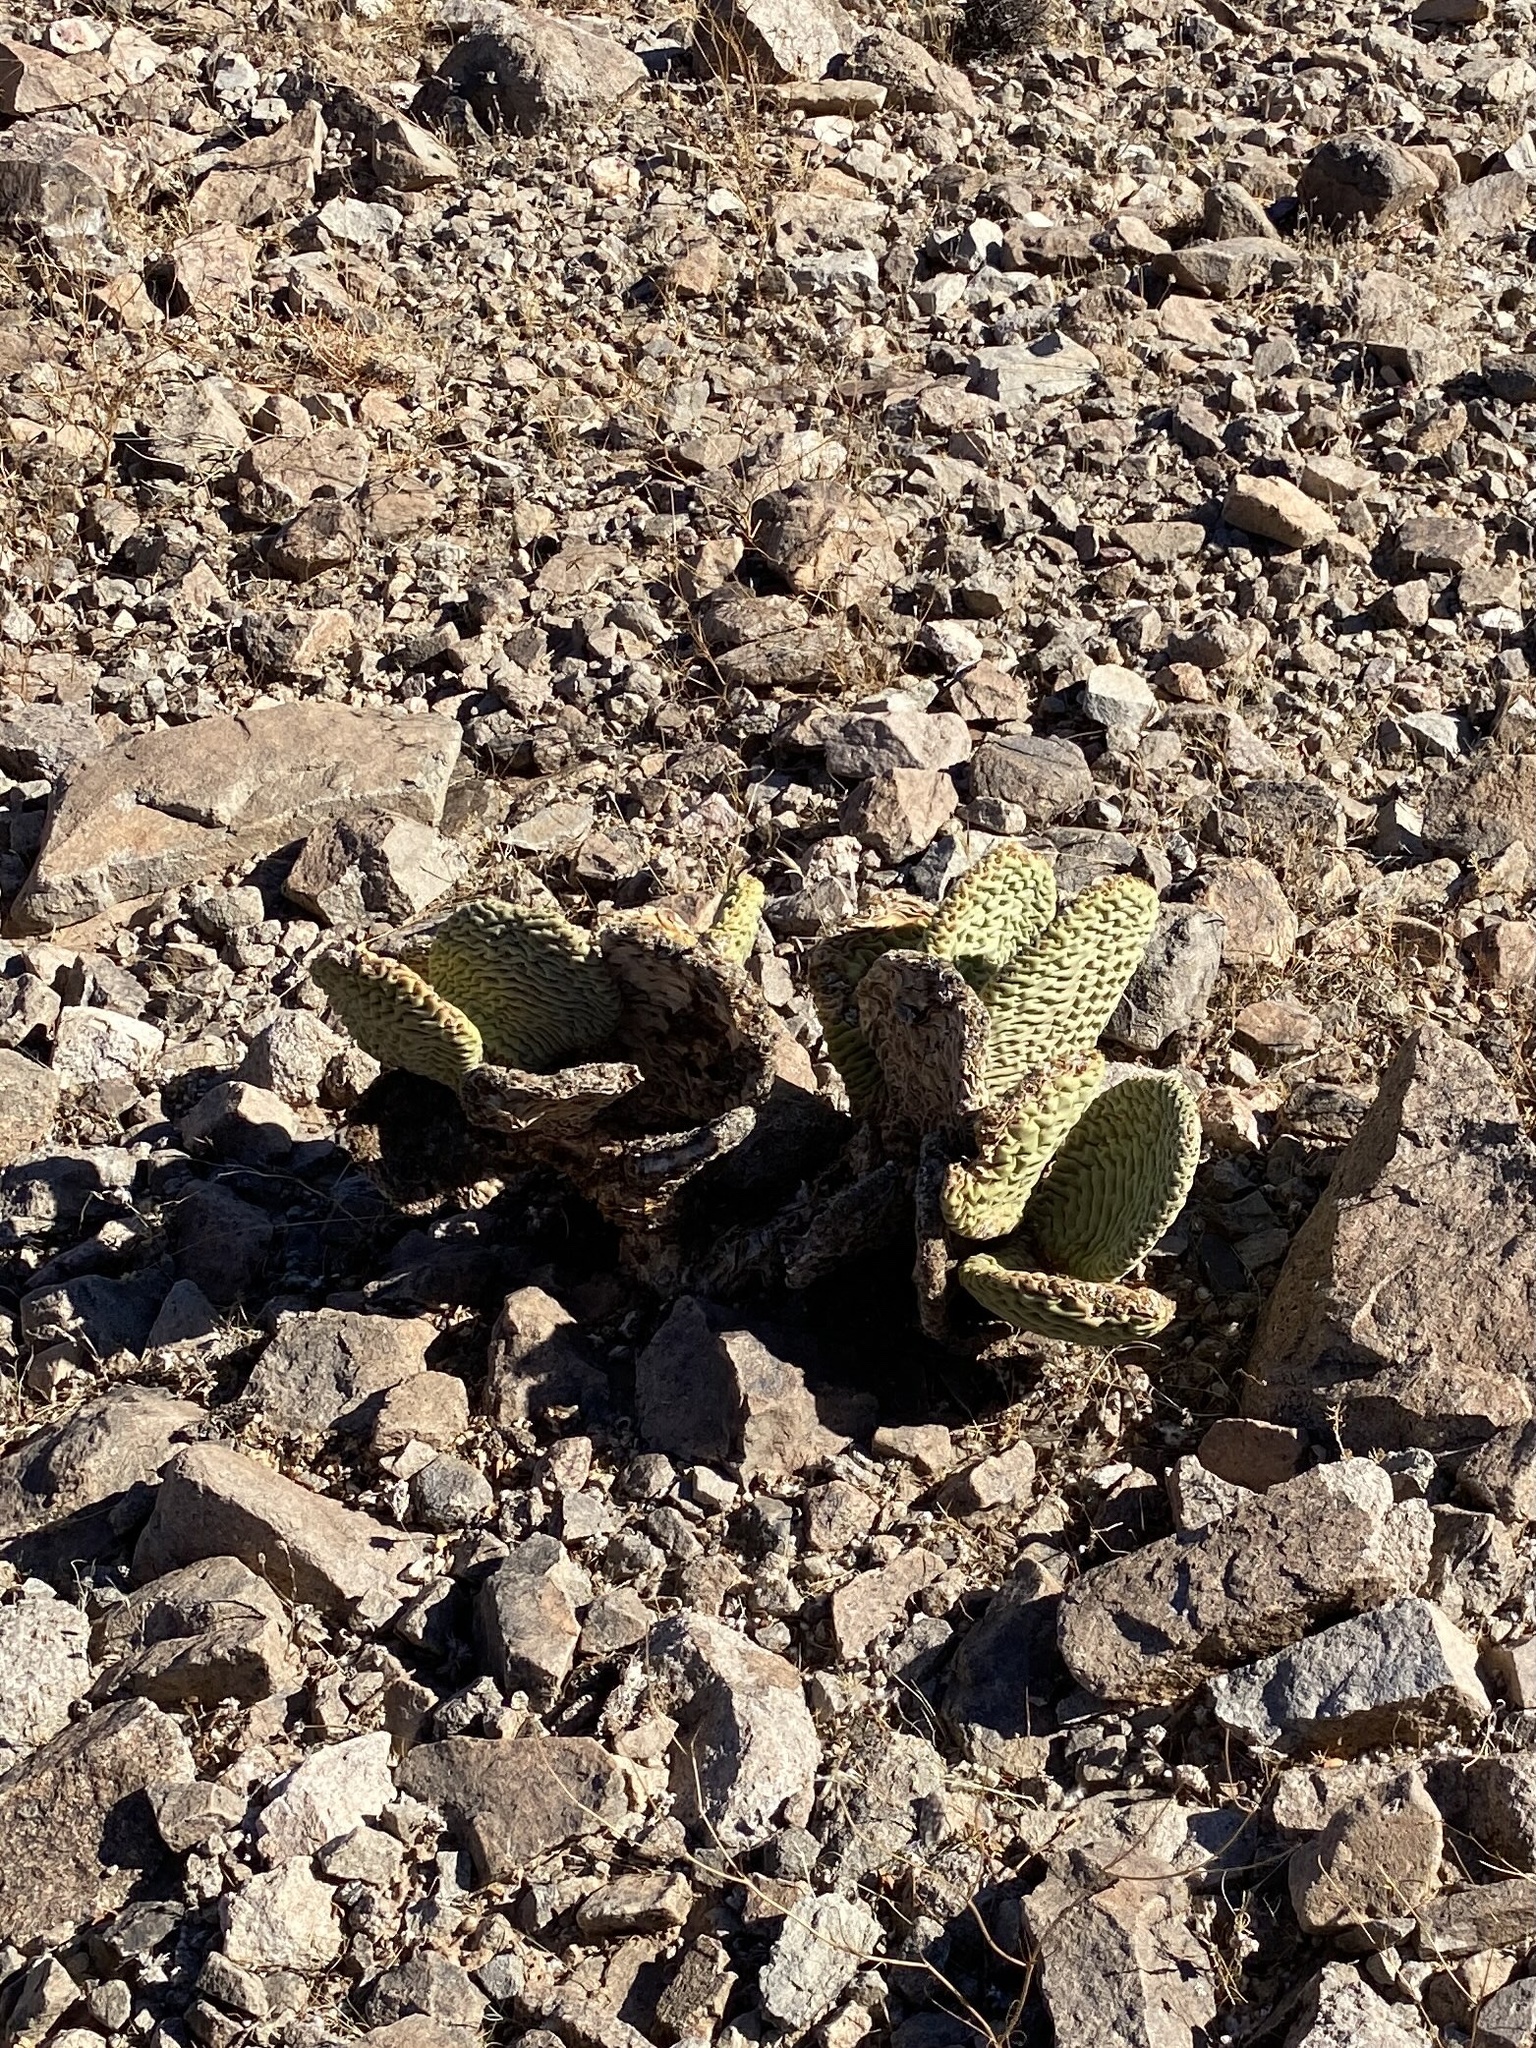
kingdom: Plantae
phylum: Tracheophyta
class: Magnoliopsida
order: Caryophyllales
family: Cactaceae
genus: Opuntia
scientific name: Opuntia basilaris
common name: Beavertail prickly-pear
